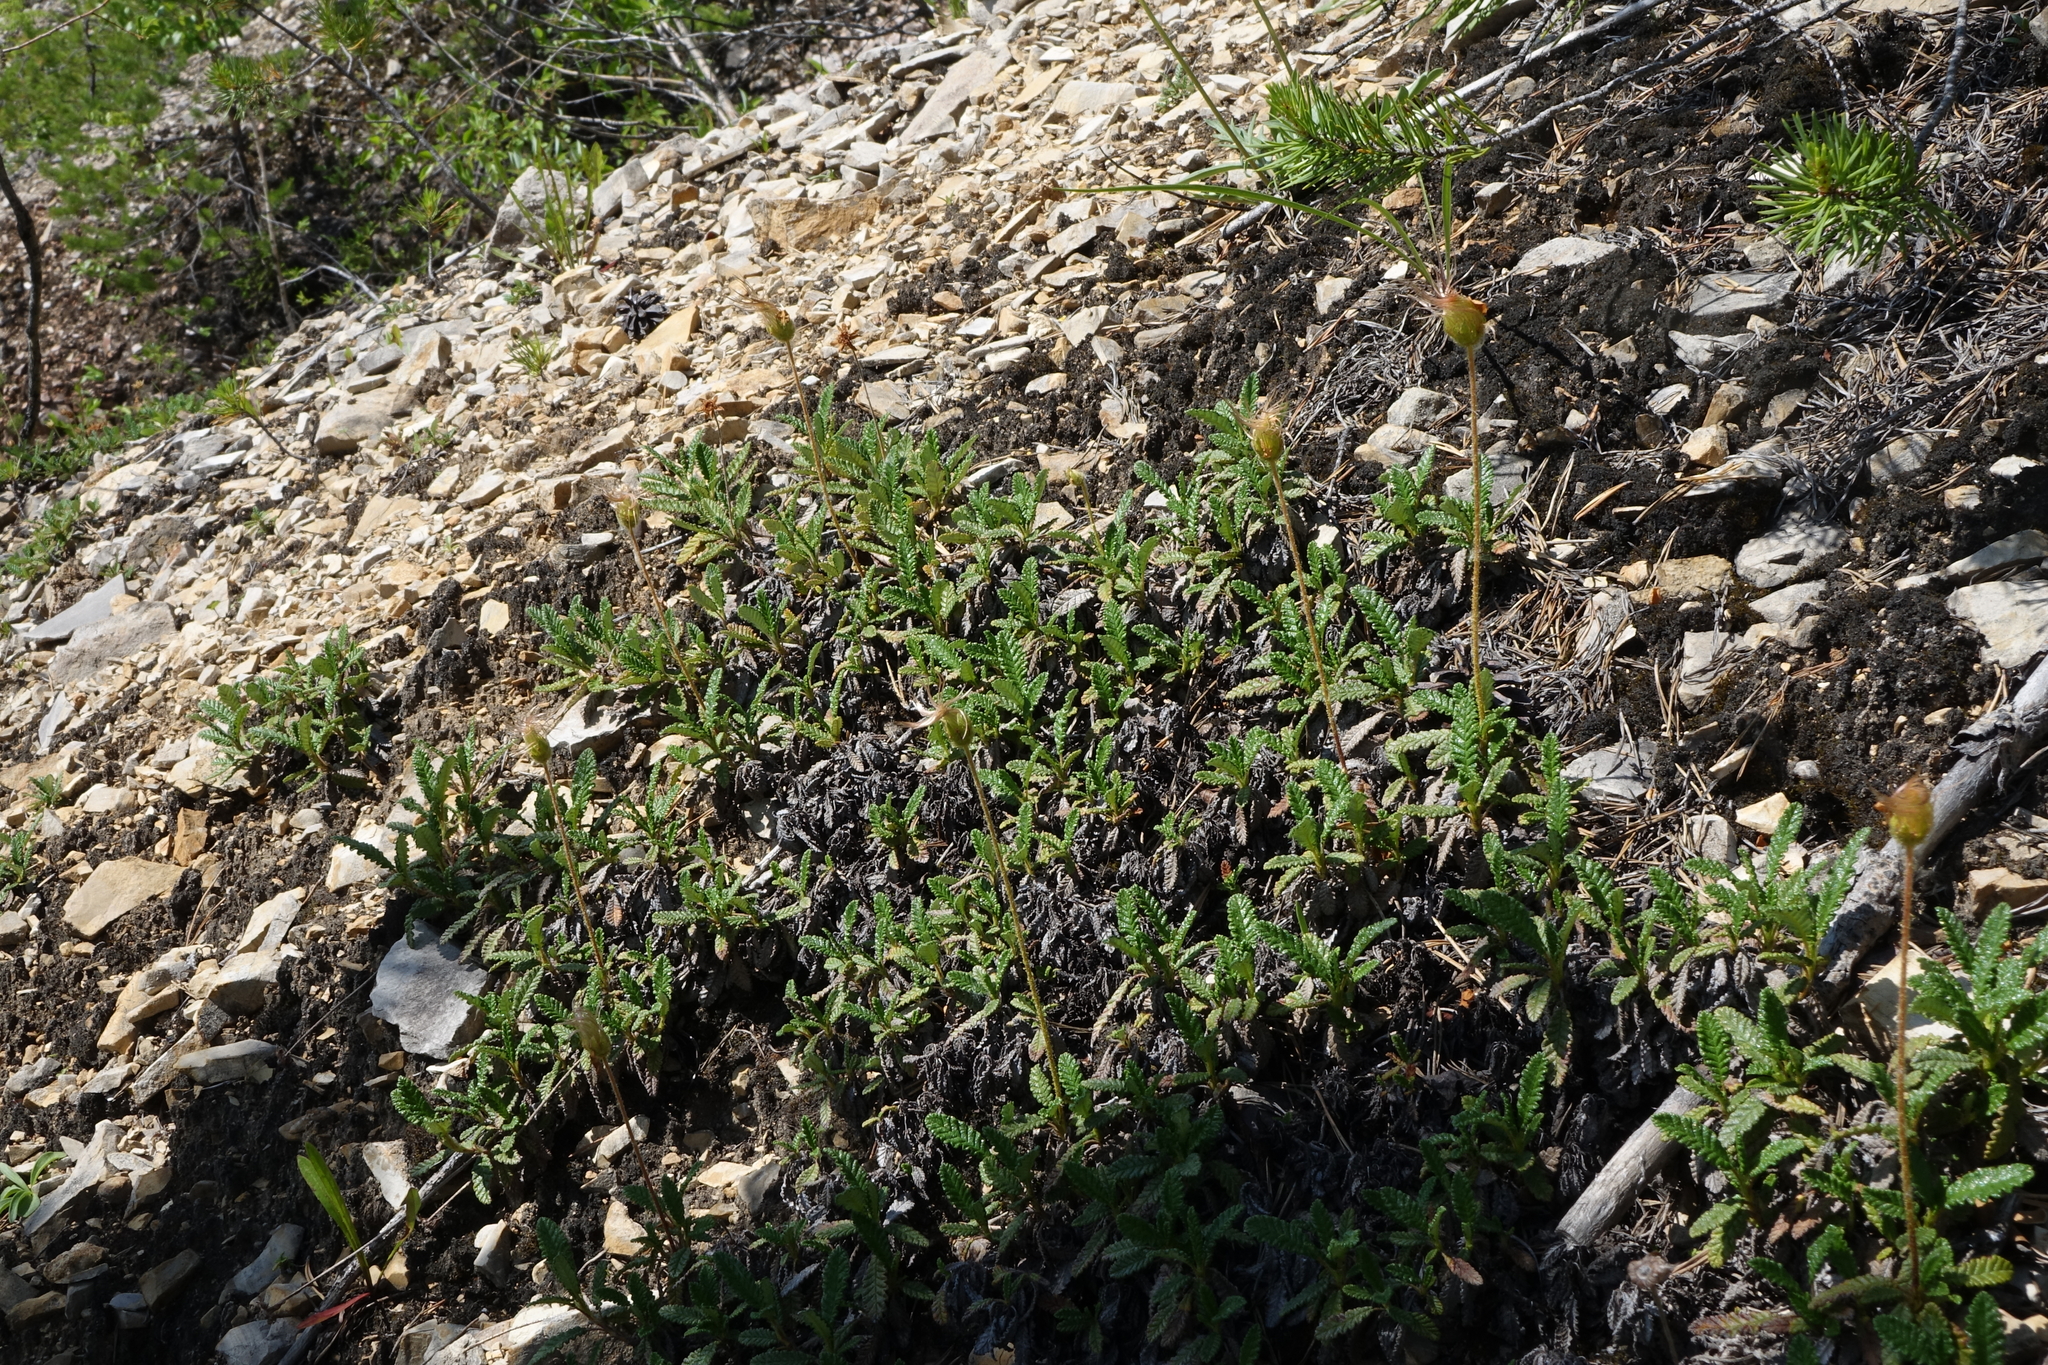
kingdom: Plantae
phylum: Tracheophyta
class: Magnoliopsida
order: Rosales
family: Rosaceae
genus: Dryas
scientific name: Dryas octopetala
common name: Eight-petal mountain-avens
